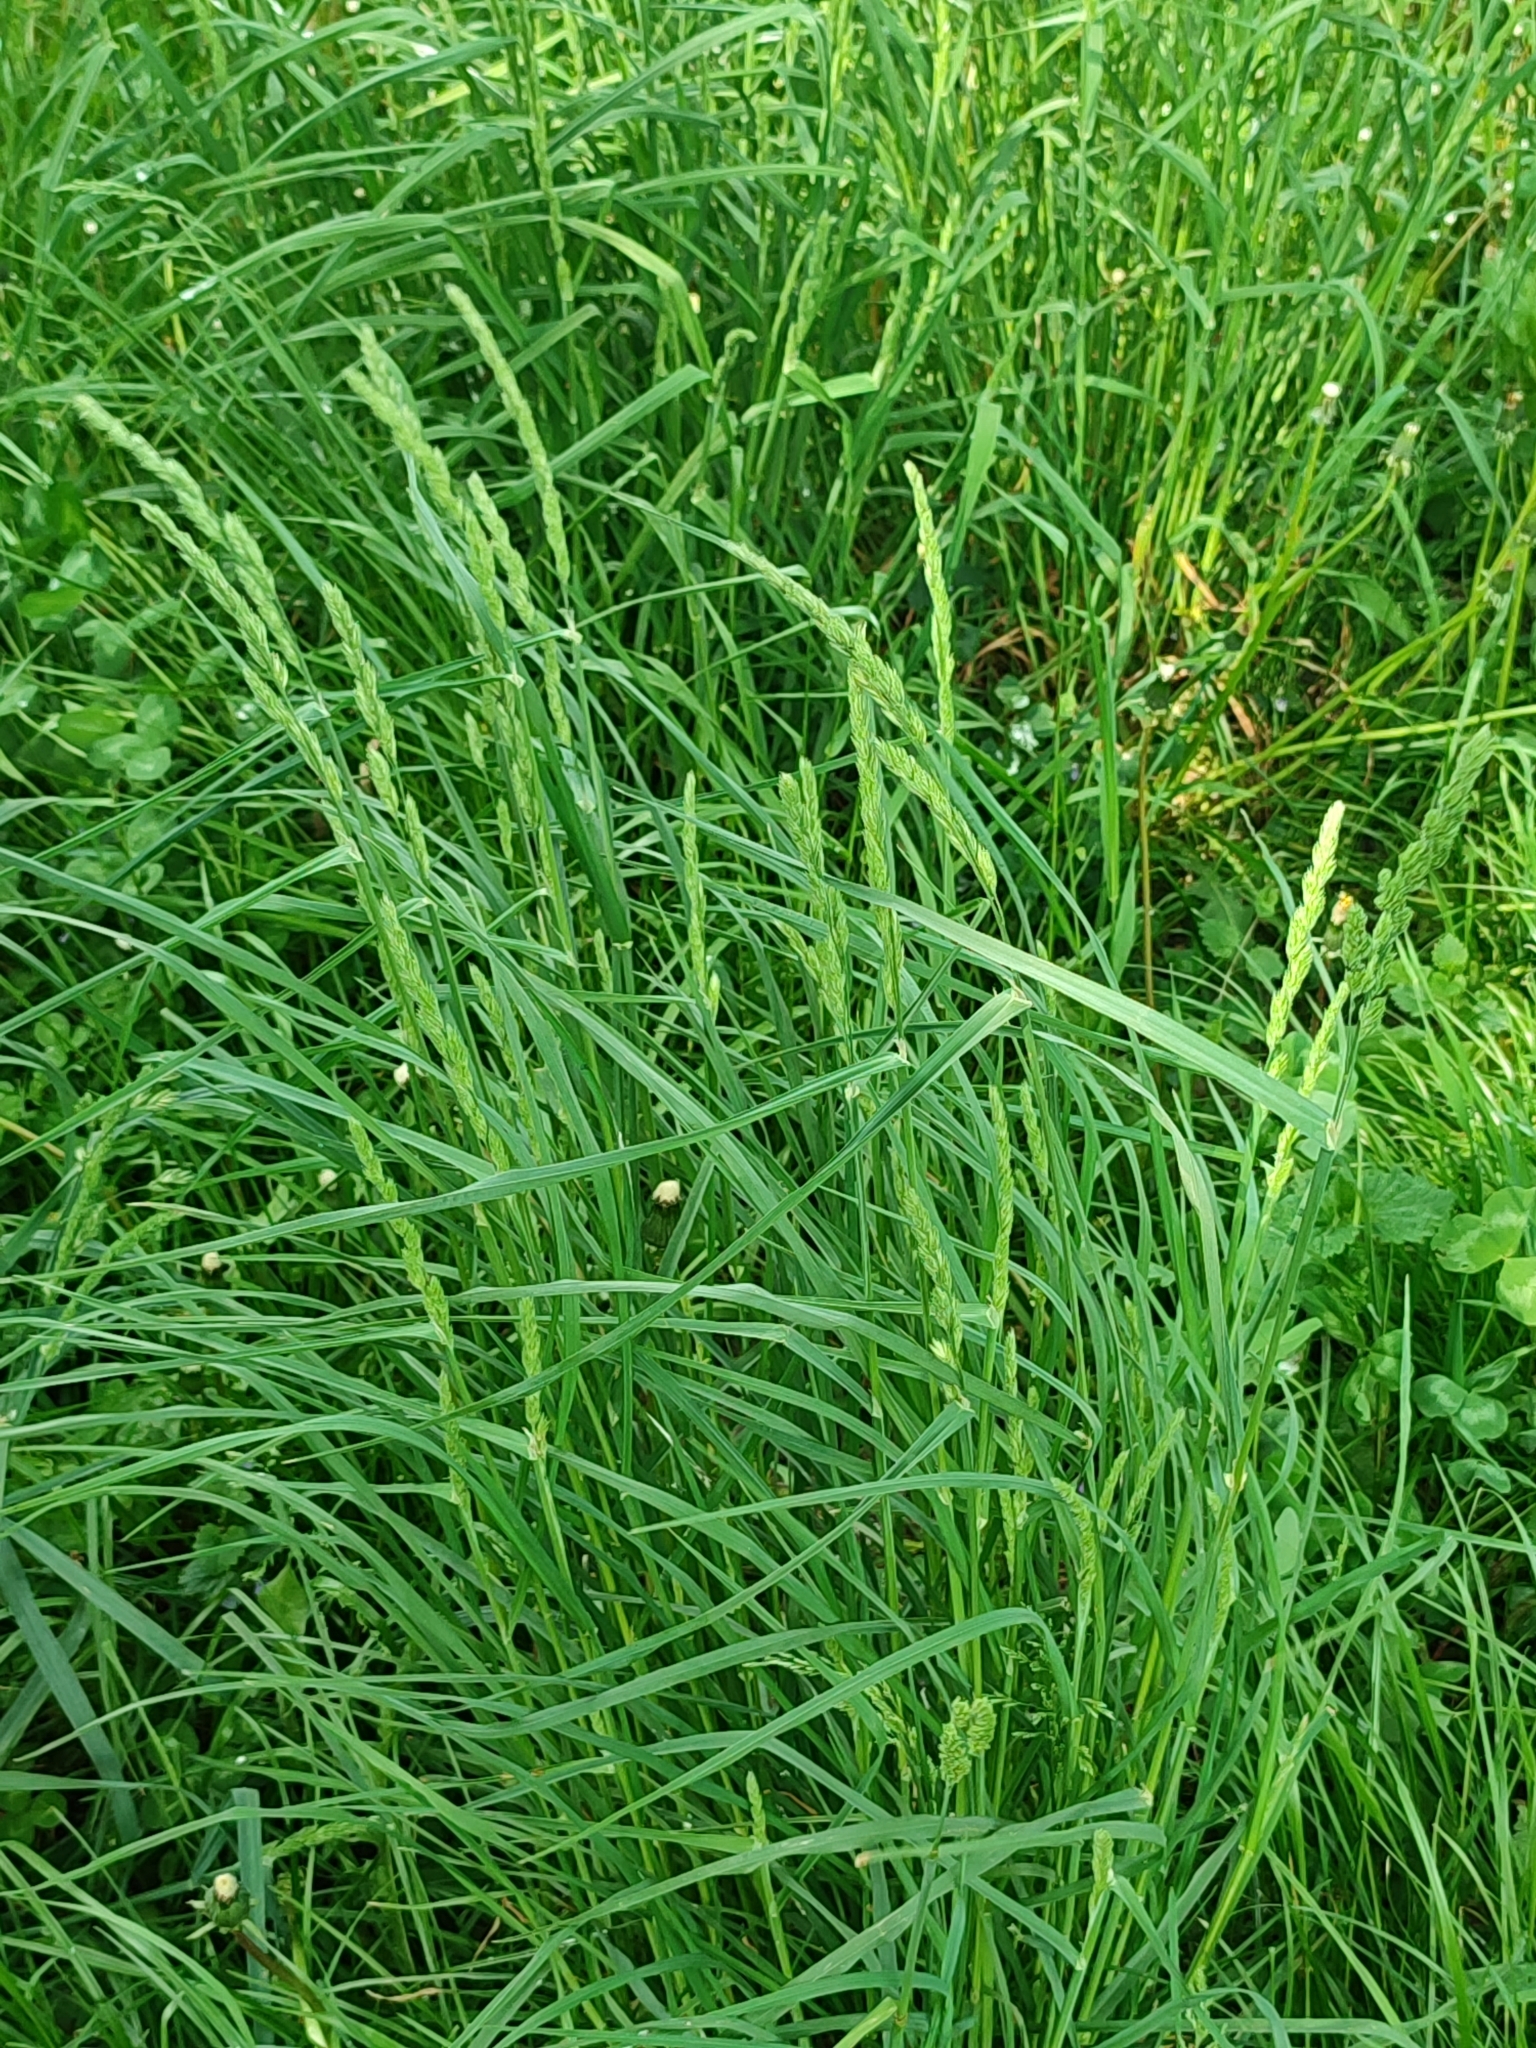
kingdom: Plantae
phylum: Tracheophyta
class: Liliopsida
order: Poales
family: Poaceae
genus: Dactylis
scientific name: Dactylis glomerata
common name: Orchardgrass
